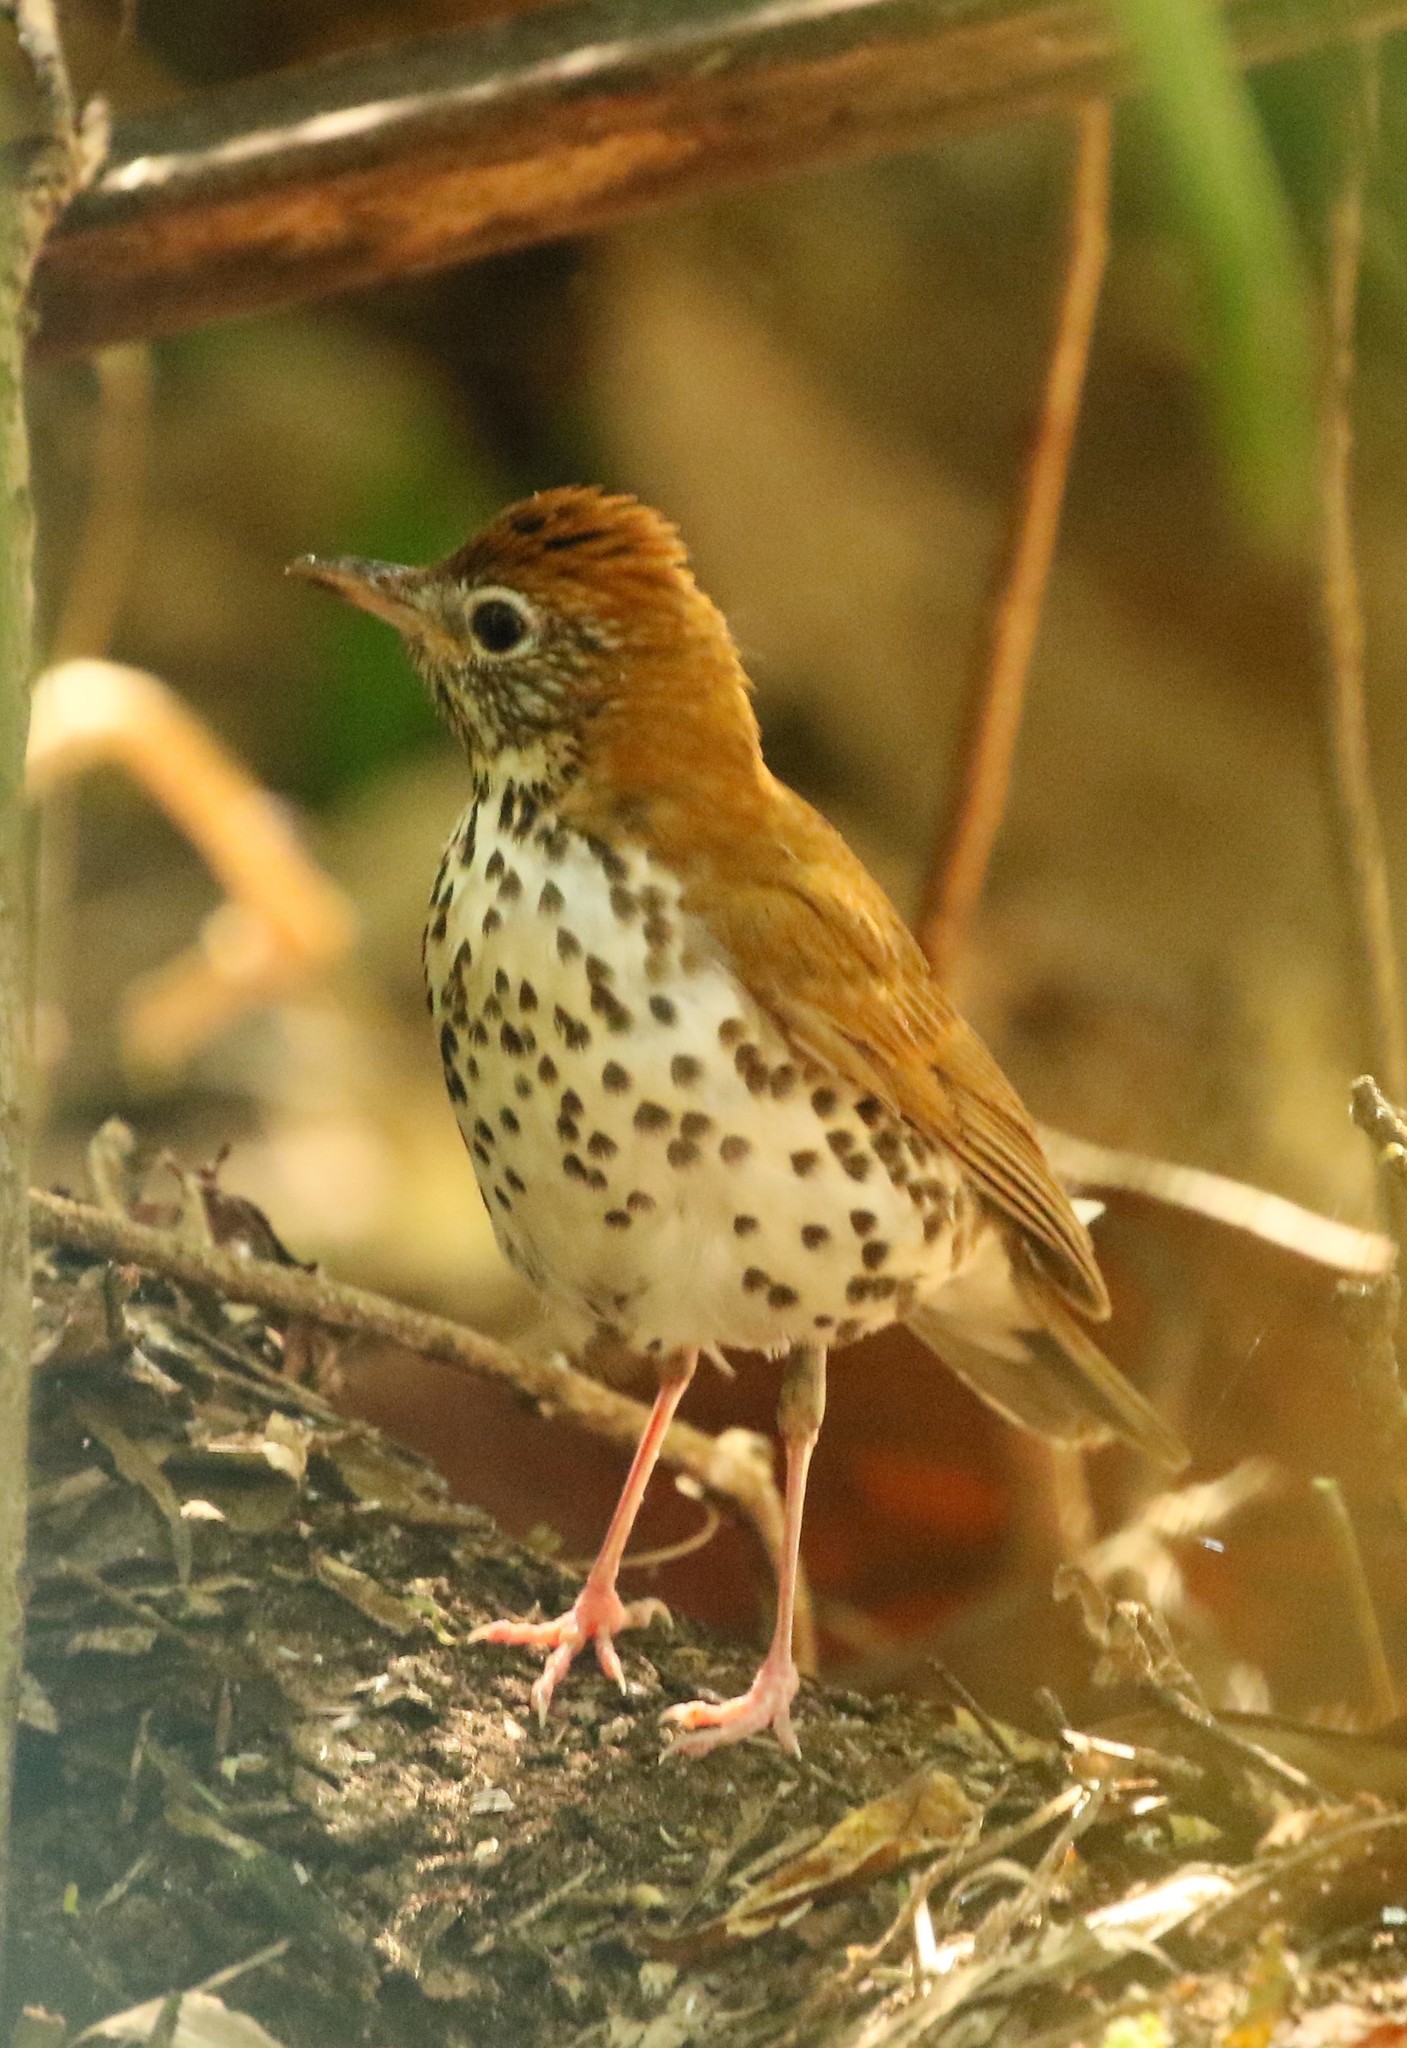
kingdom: Animalia
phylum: Chordata
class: Aves
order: Passeriformes
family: Turdidae
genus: Hylocichla
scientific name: Hylocichla mustelina
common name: Wood thrush
